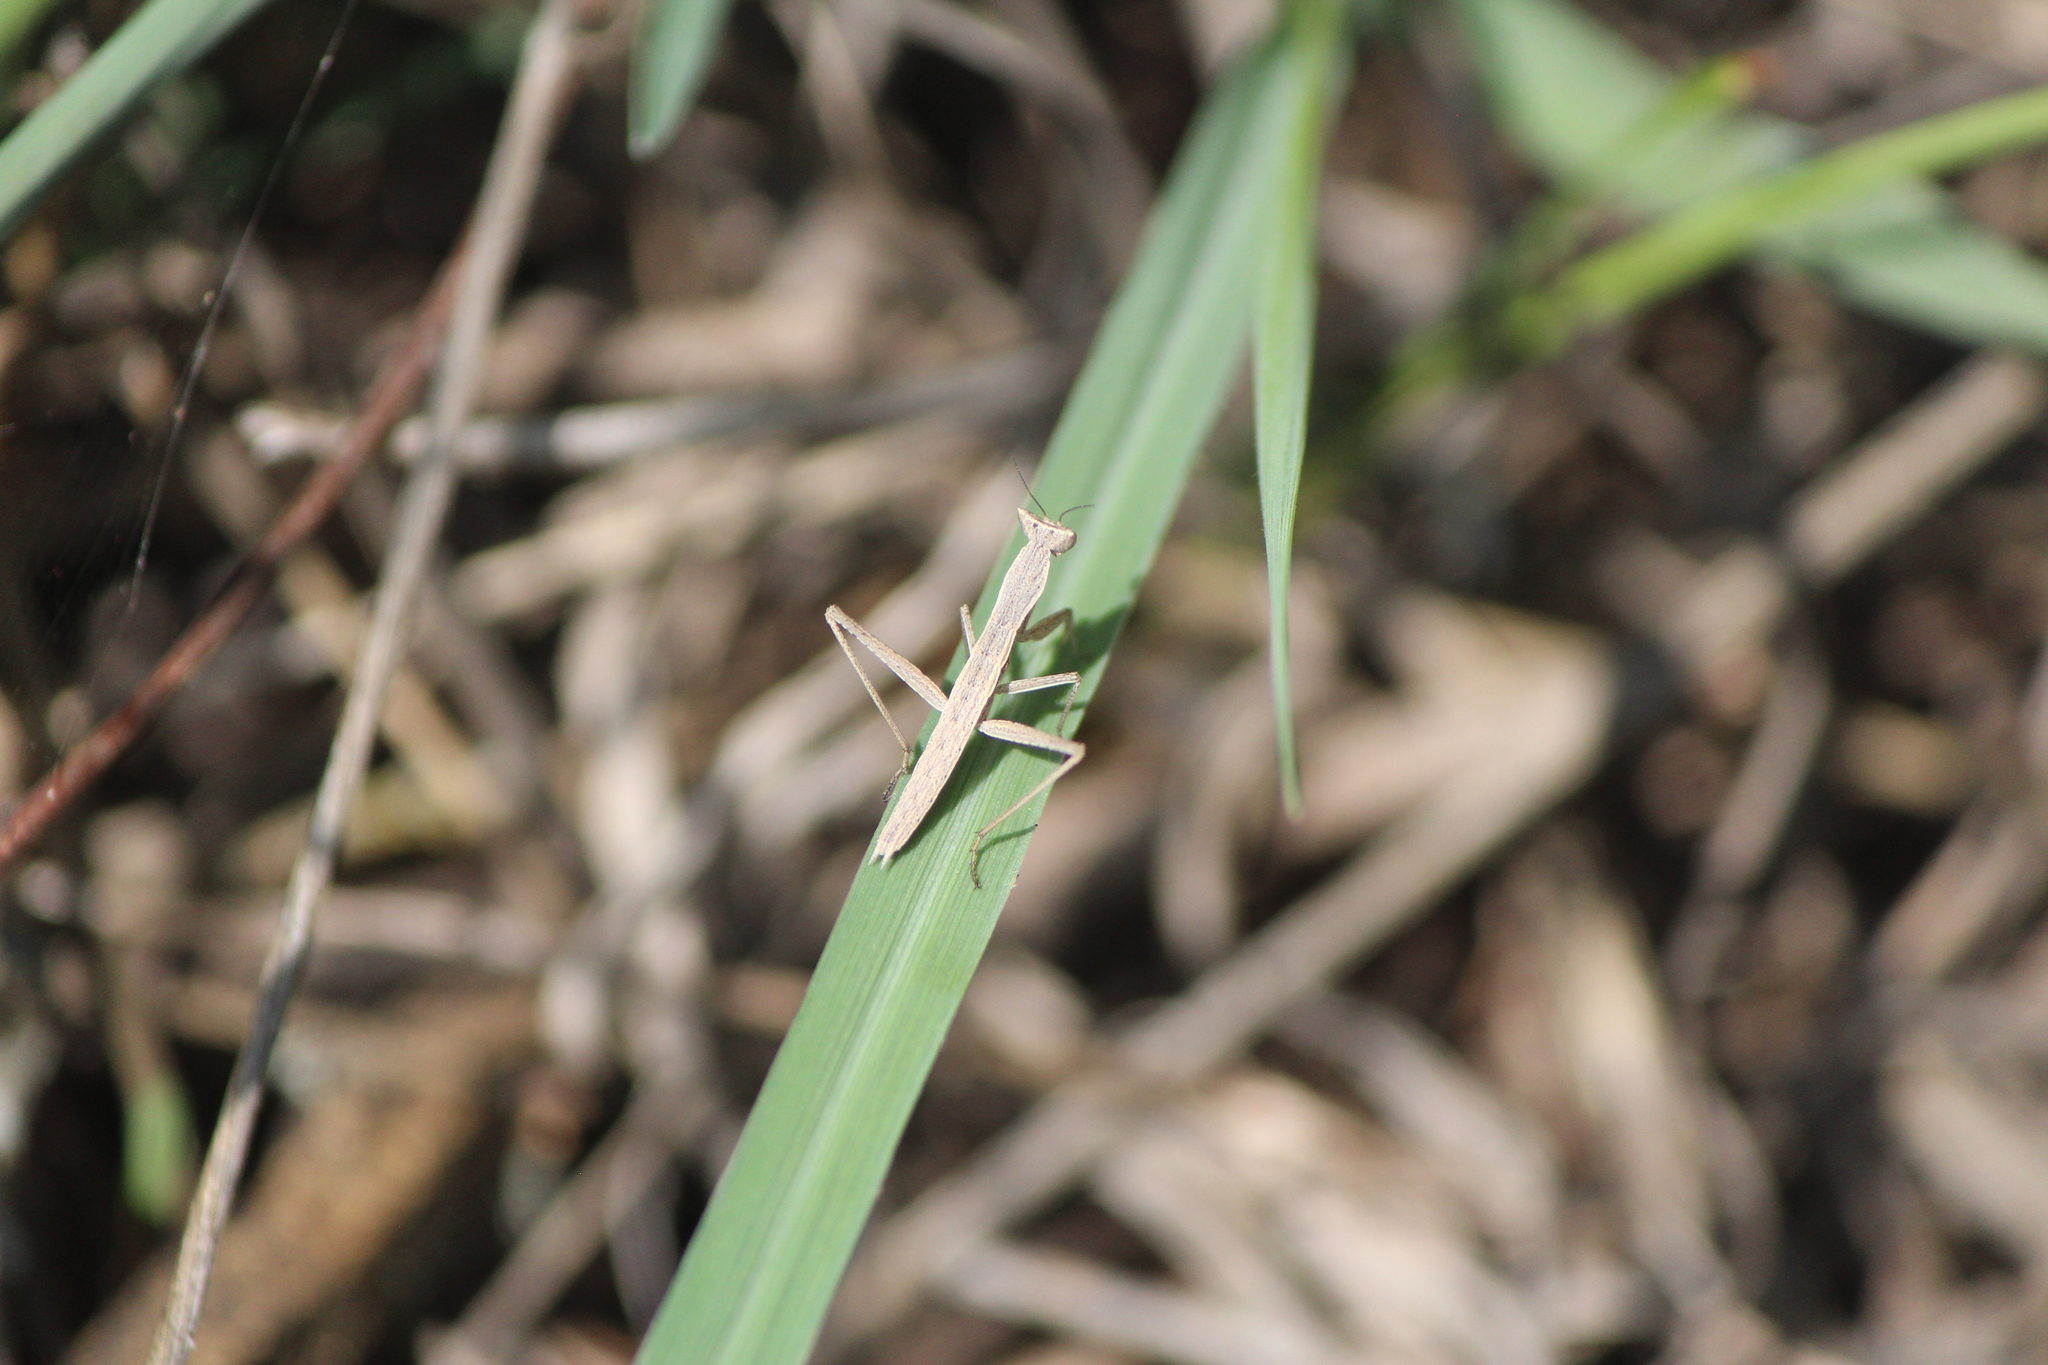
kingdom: Animalia
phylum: Arthropoda
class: Insecta
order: Mantodea
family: Amelidae
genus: Yersinia
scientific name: Yersinia mexicana
